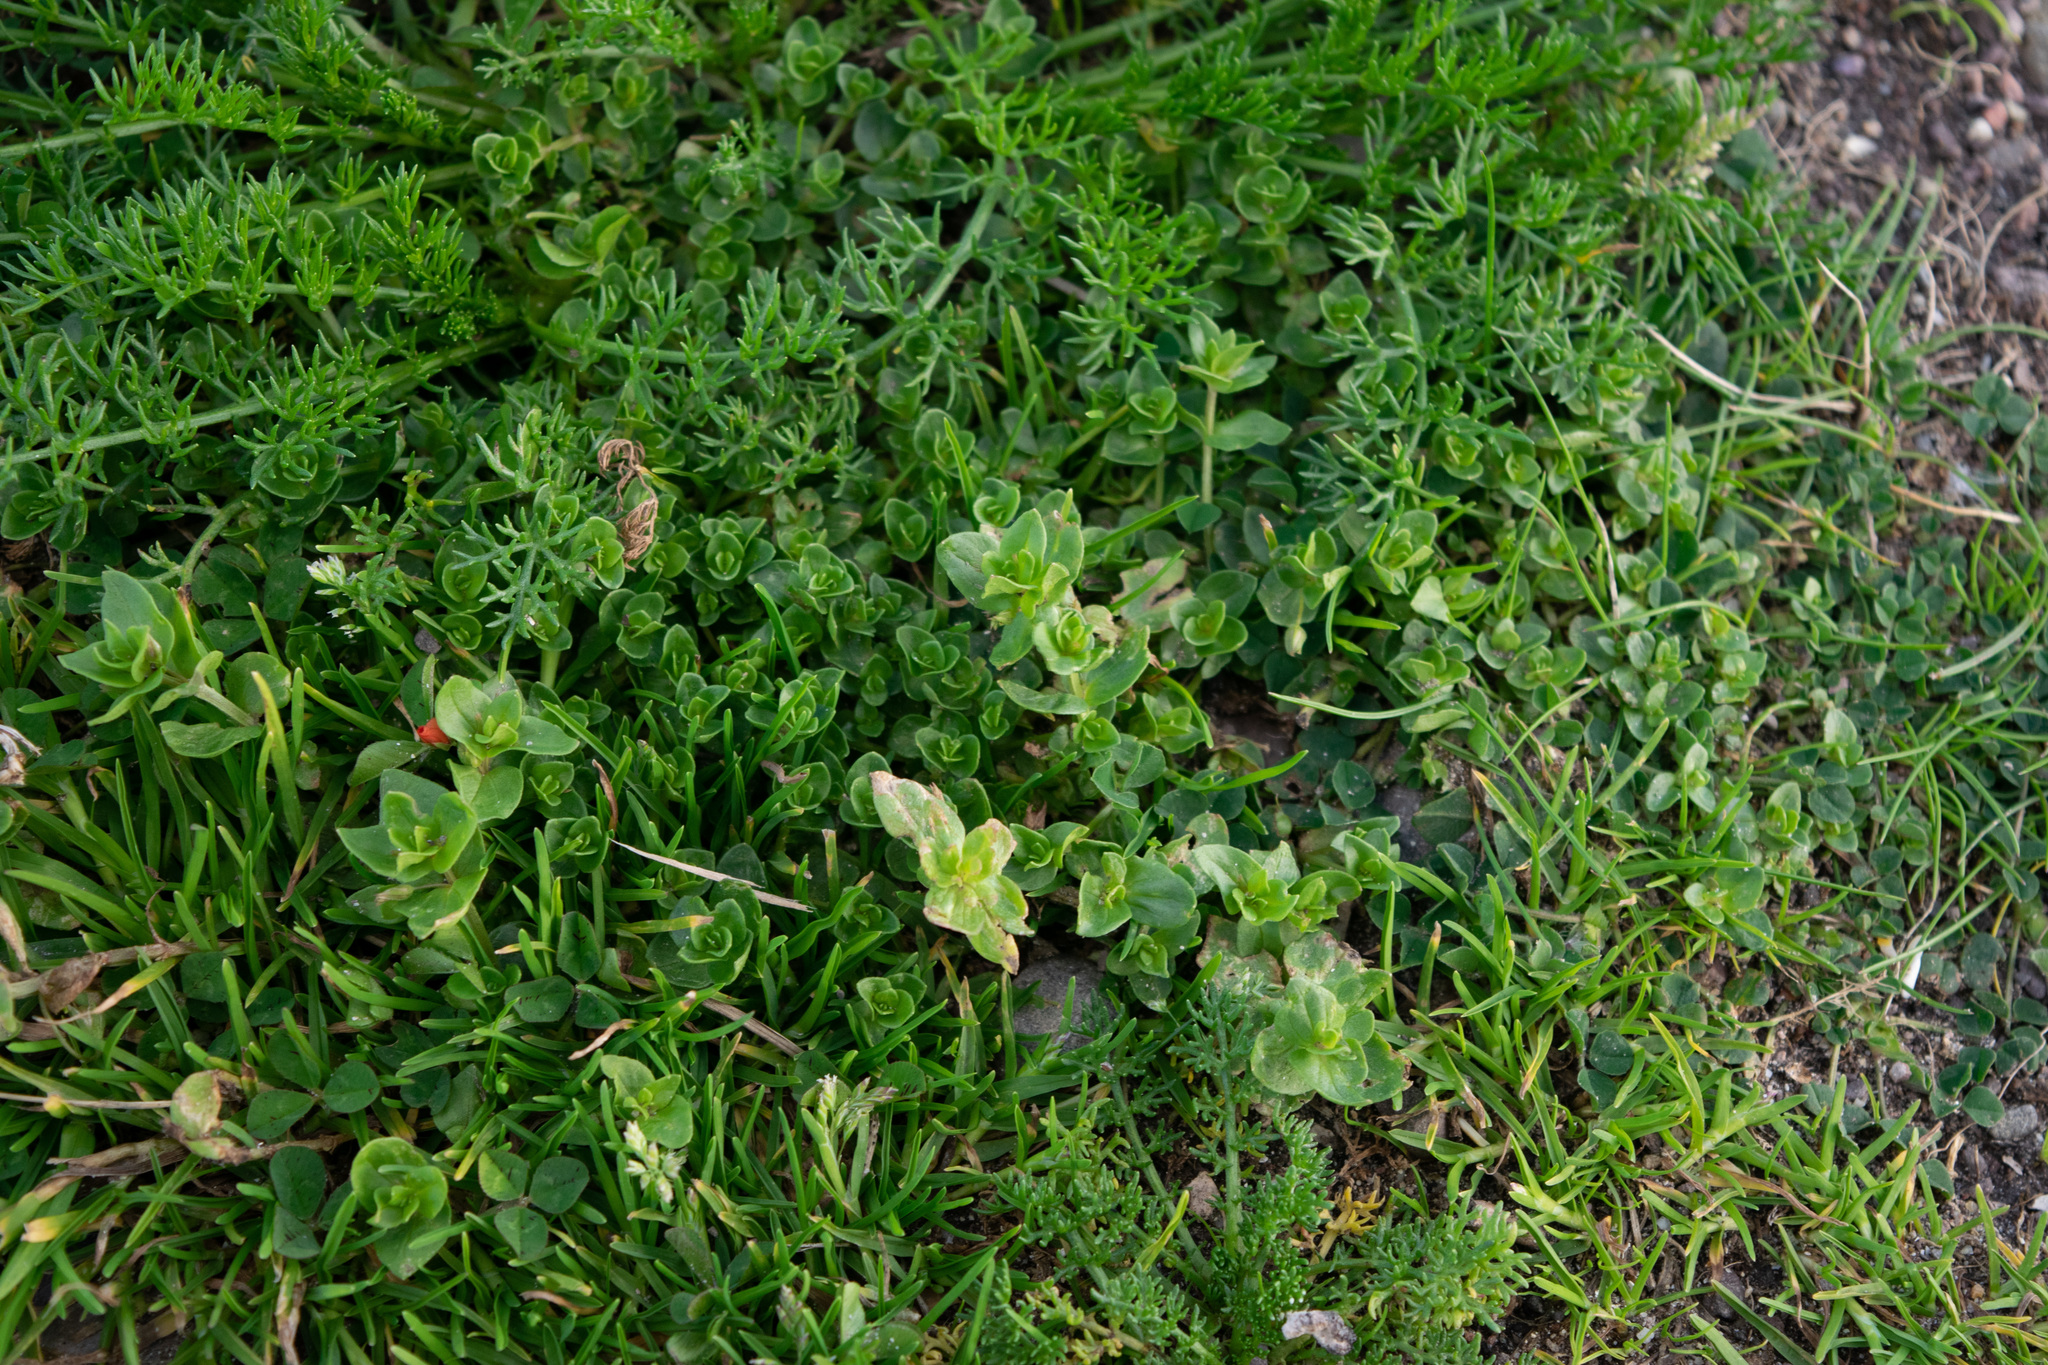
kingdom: Plantae
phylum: Tracheophyta
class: Magnoliopsida
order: Ericales
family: Primulaceae
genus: Lysimachia
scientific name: Lysimachia arvensis
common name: Scarlet pimpernel
